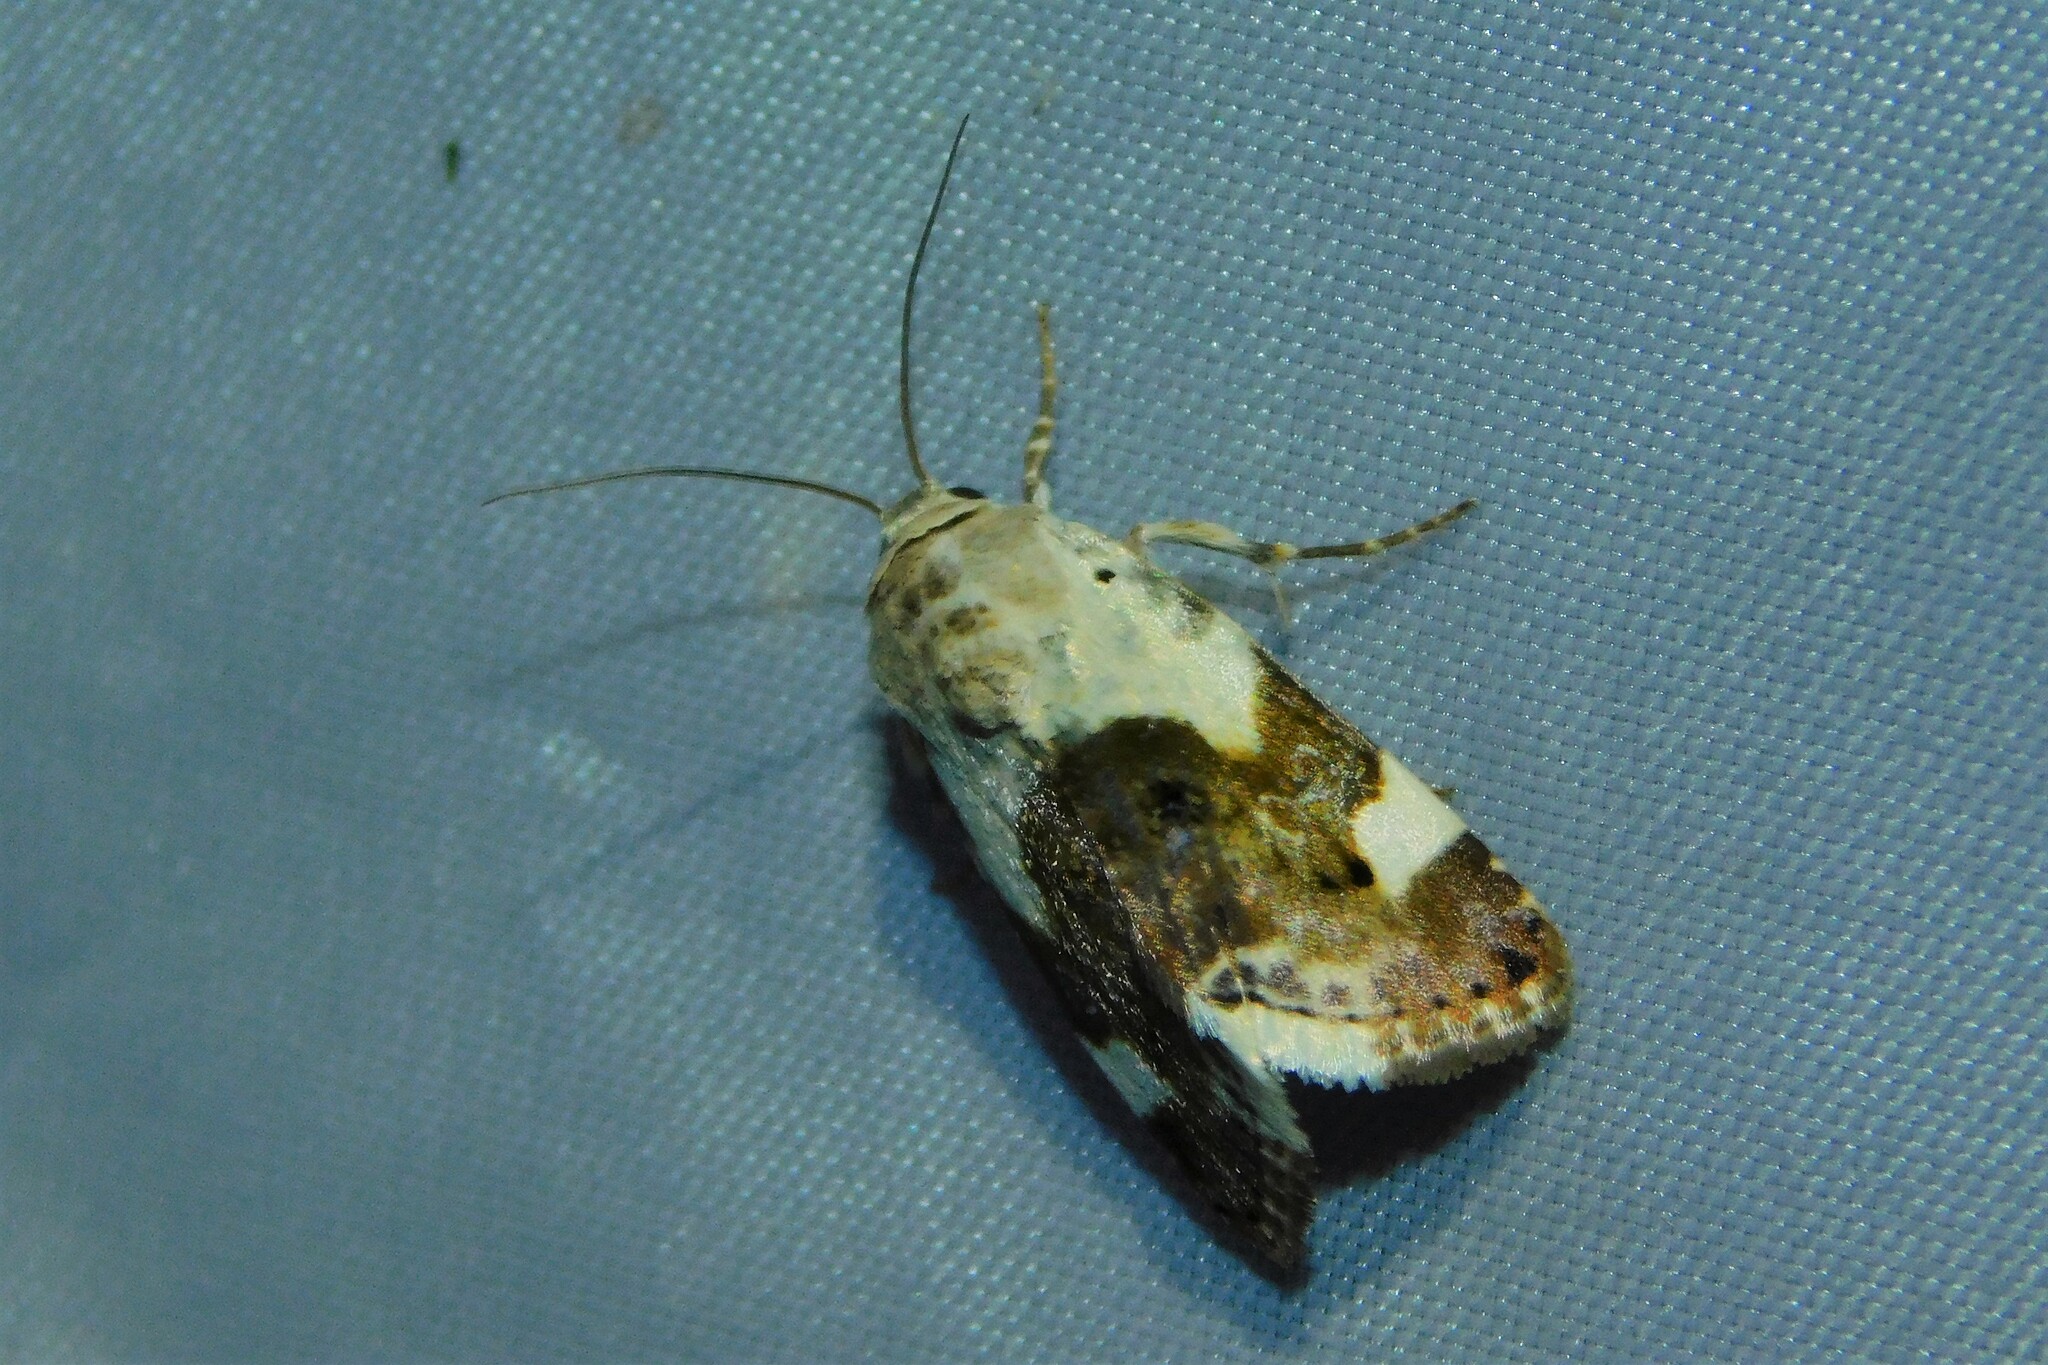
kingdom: Animalia
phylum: Arthropoda
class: Insecta
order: Lepidoptera
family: Noctuidae
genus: Acontia
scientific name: Acontia lucida
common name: Pale shoulder
